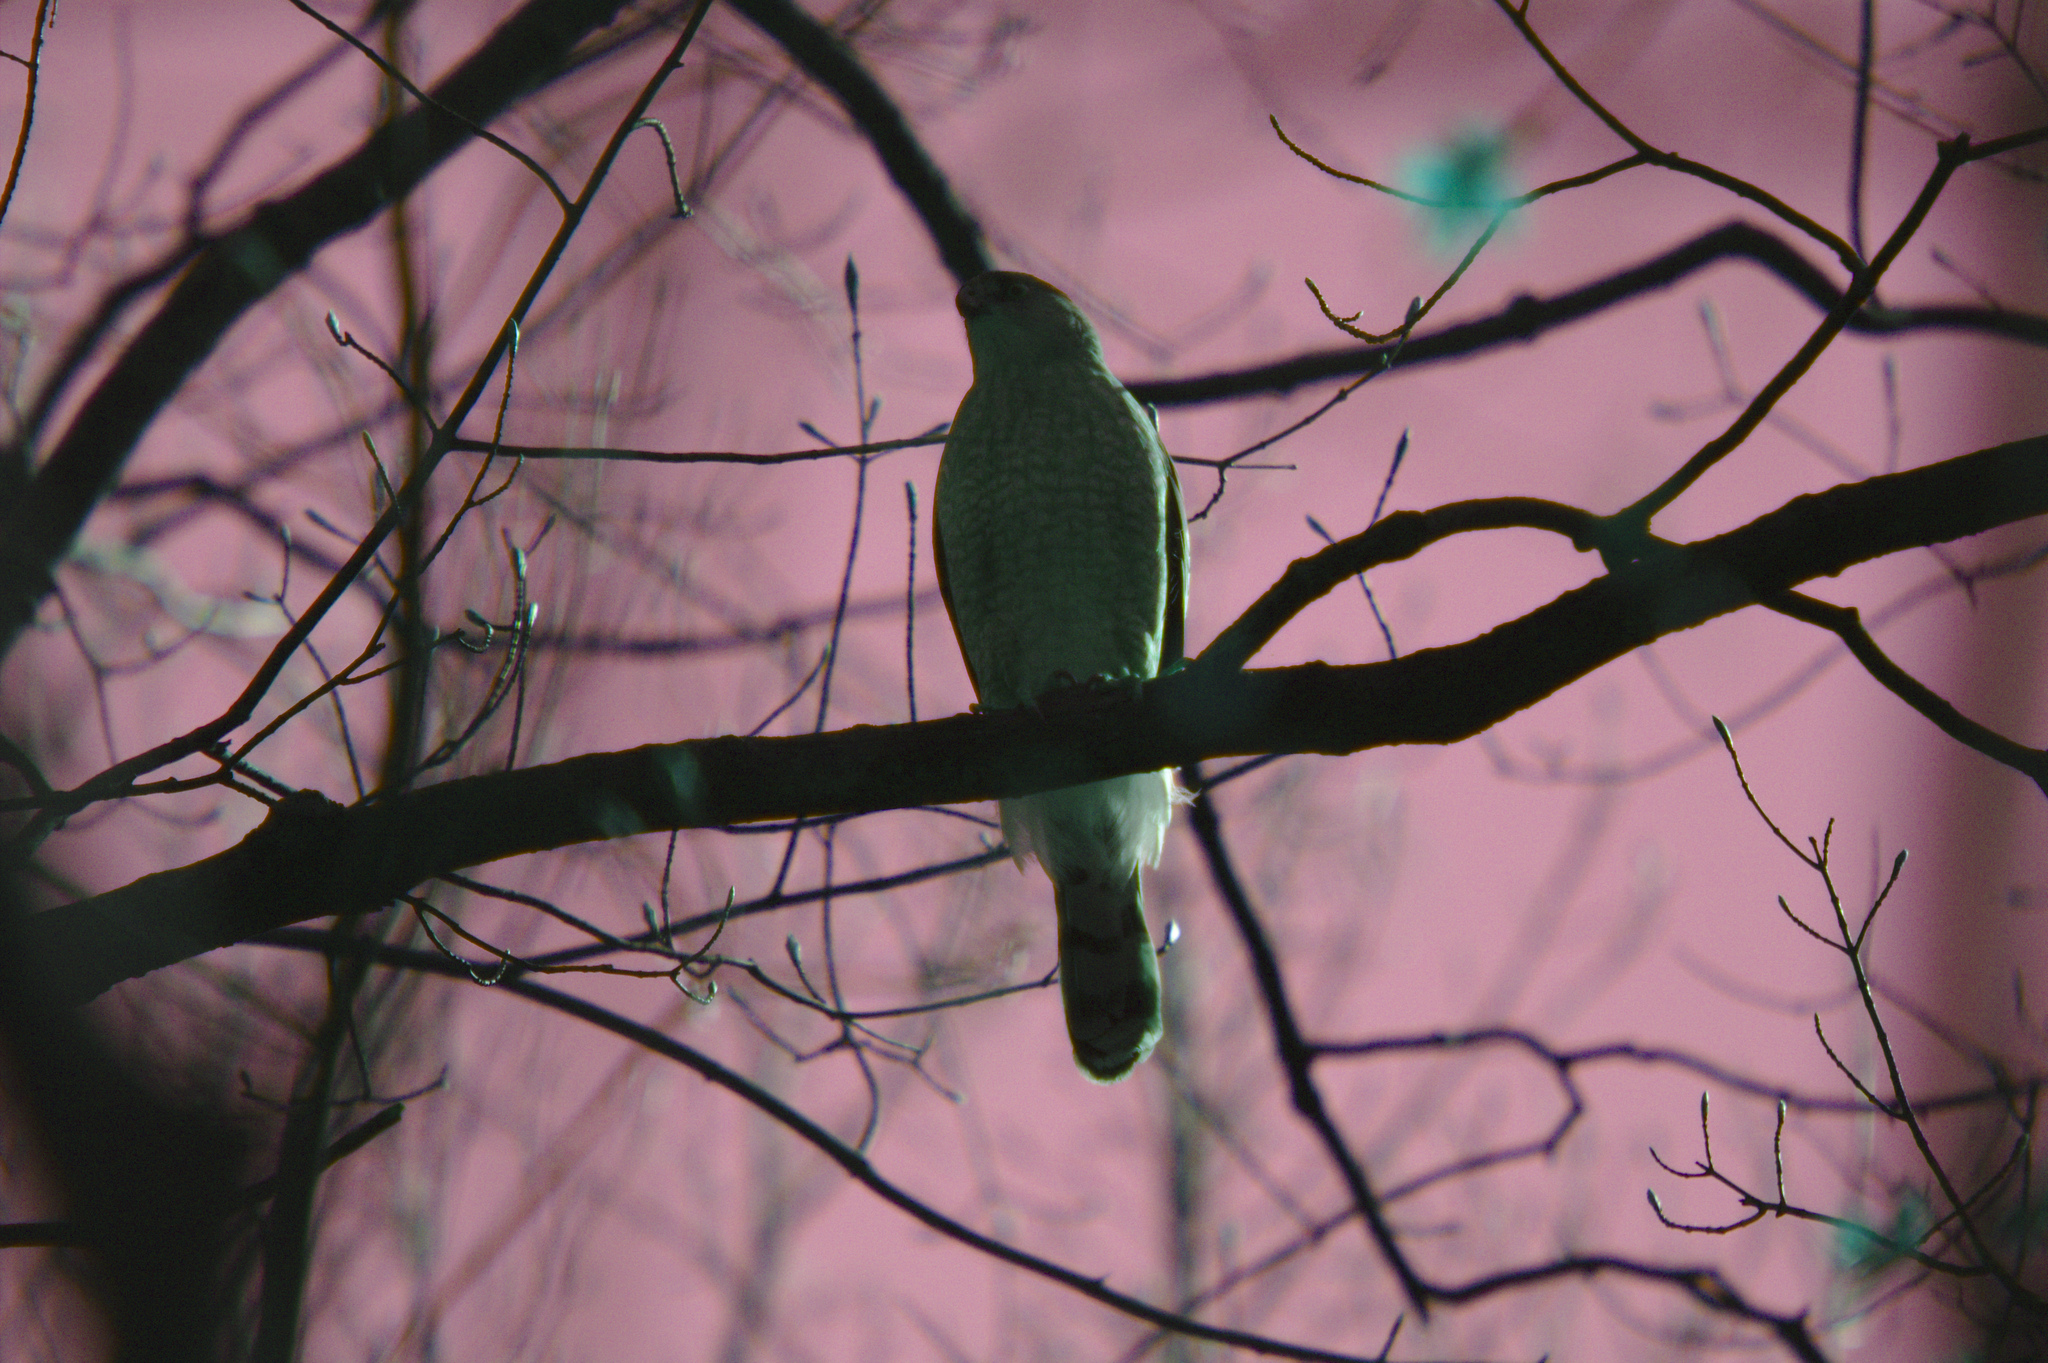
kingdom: Animalia
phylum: Chordata
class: Aves
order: Accipitriformes
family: Accipitridae
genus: Accipiter
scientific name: Accipiter cooperii
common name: Cooper's hawk
